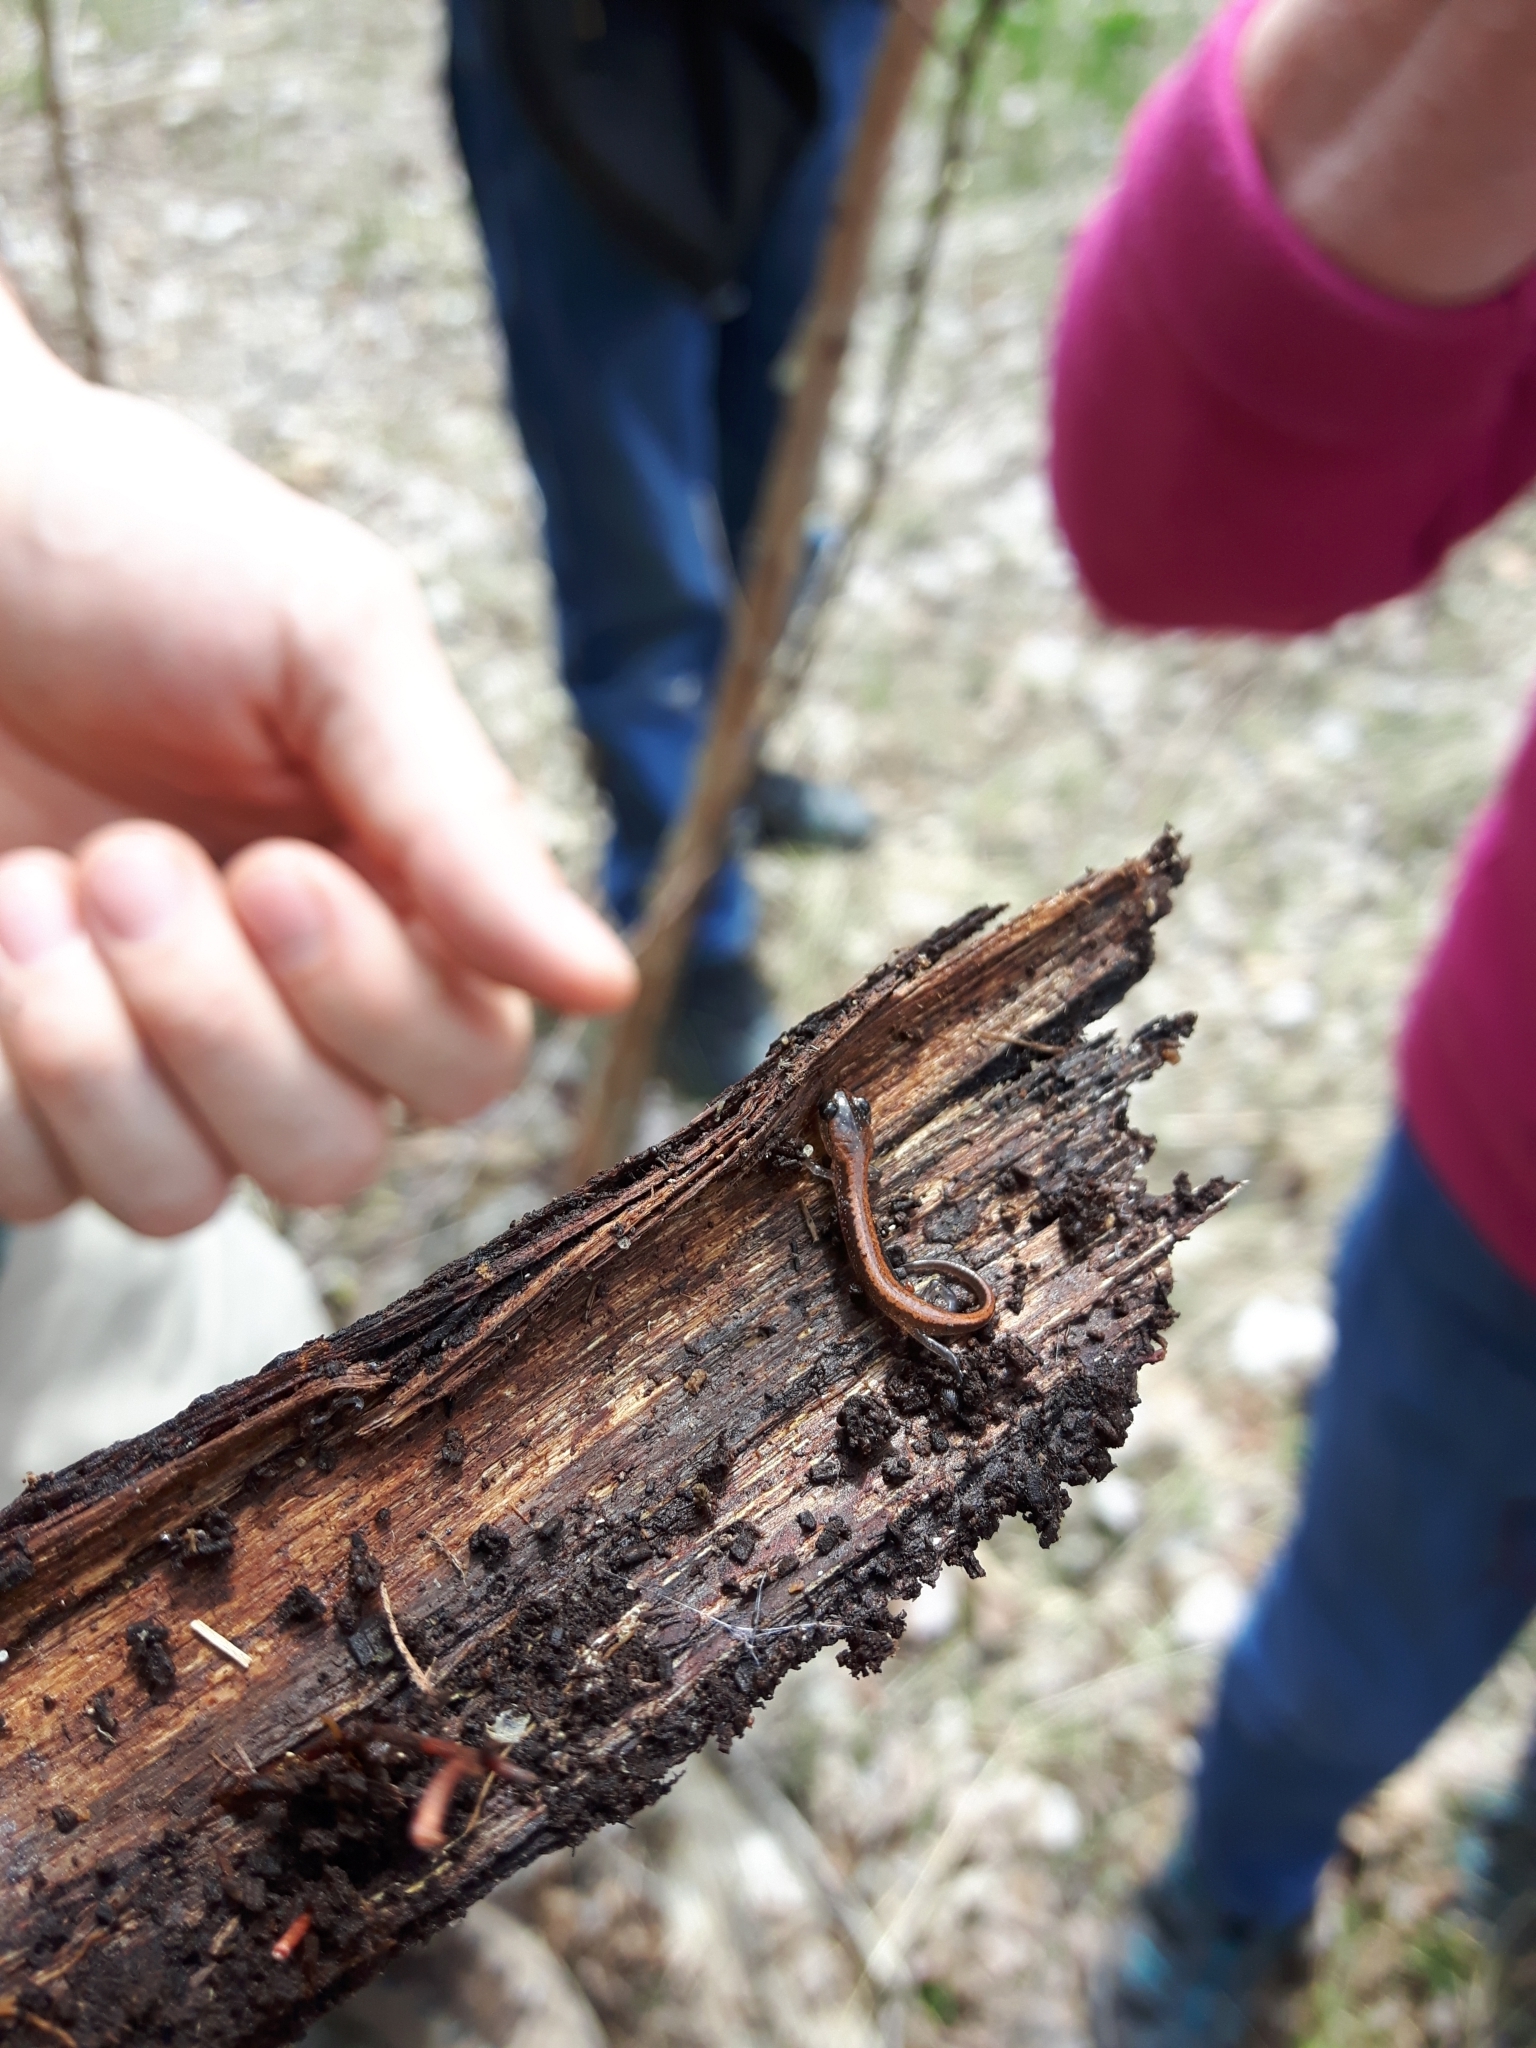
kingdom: Animalia
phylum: Chordata
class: Amphibia
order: Caudata
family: Plethodontidae
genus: Plethodon
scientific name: Plethodon cinereus
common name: Redback salamander
